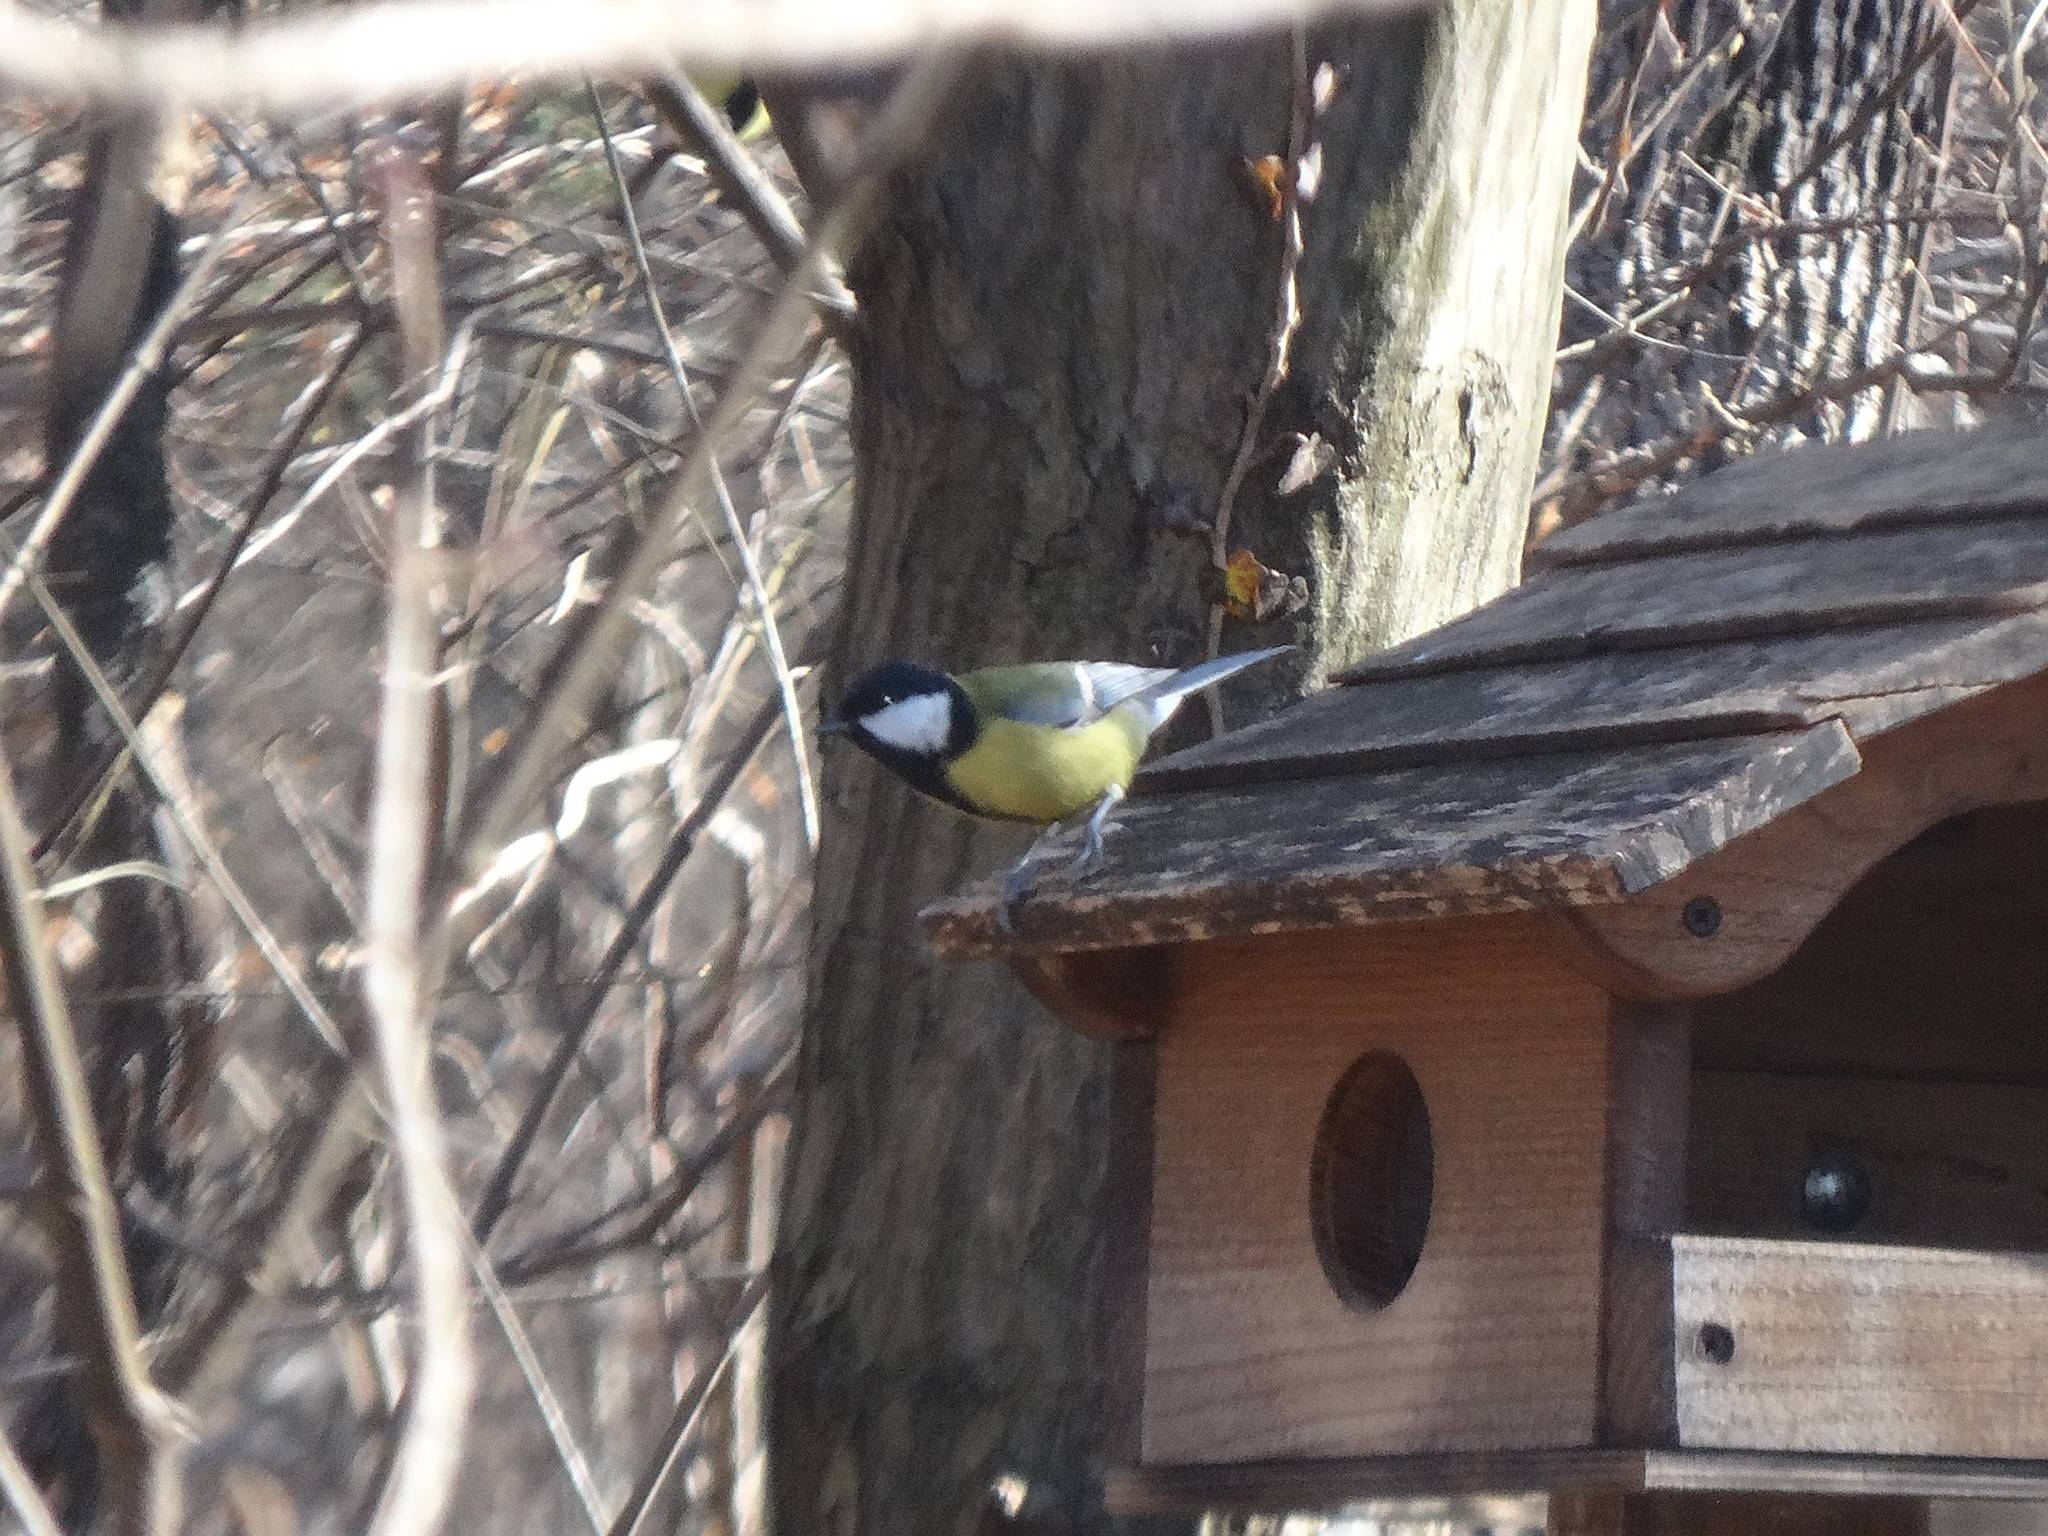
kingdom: Animalia
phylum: Chordata
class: Aves
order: Passeriformes
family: Paridae
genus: Parus
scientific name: Parus major
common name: Great tit
